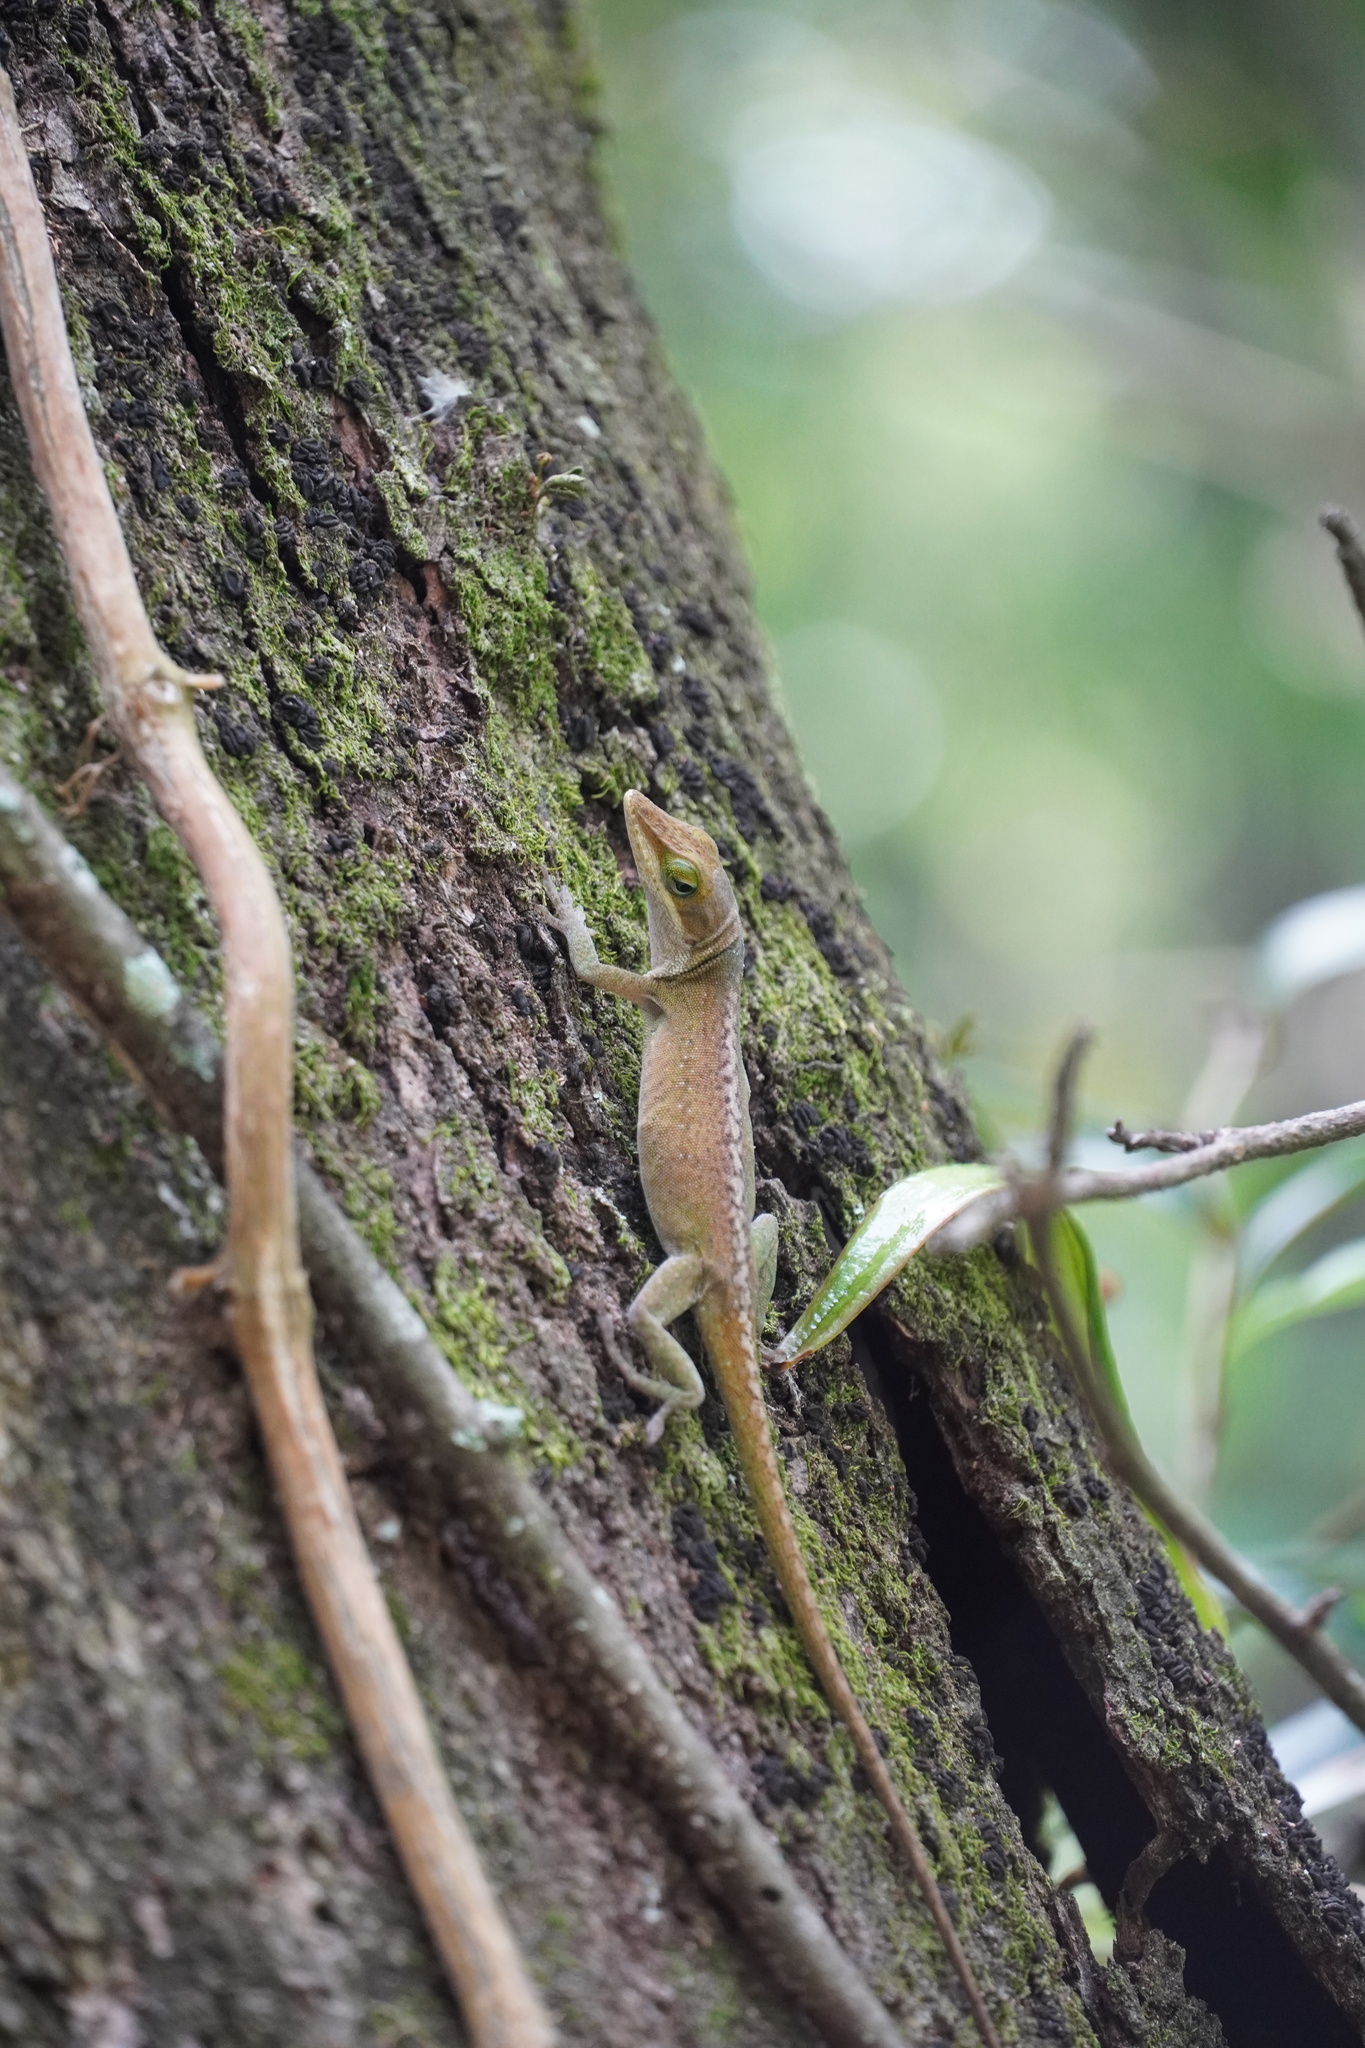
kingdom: Animalia
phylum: Chordata
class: Squamata
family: Dactyloidae
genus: Anolis
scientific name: Anolis carolinensis
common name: Green anole
